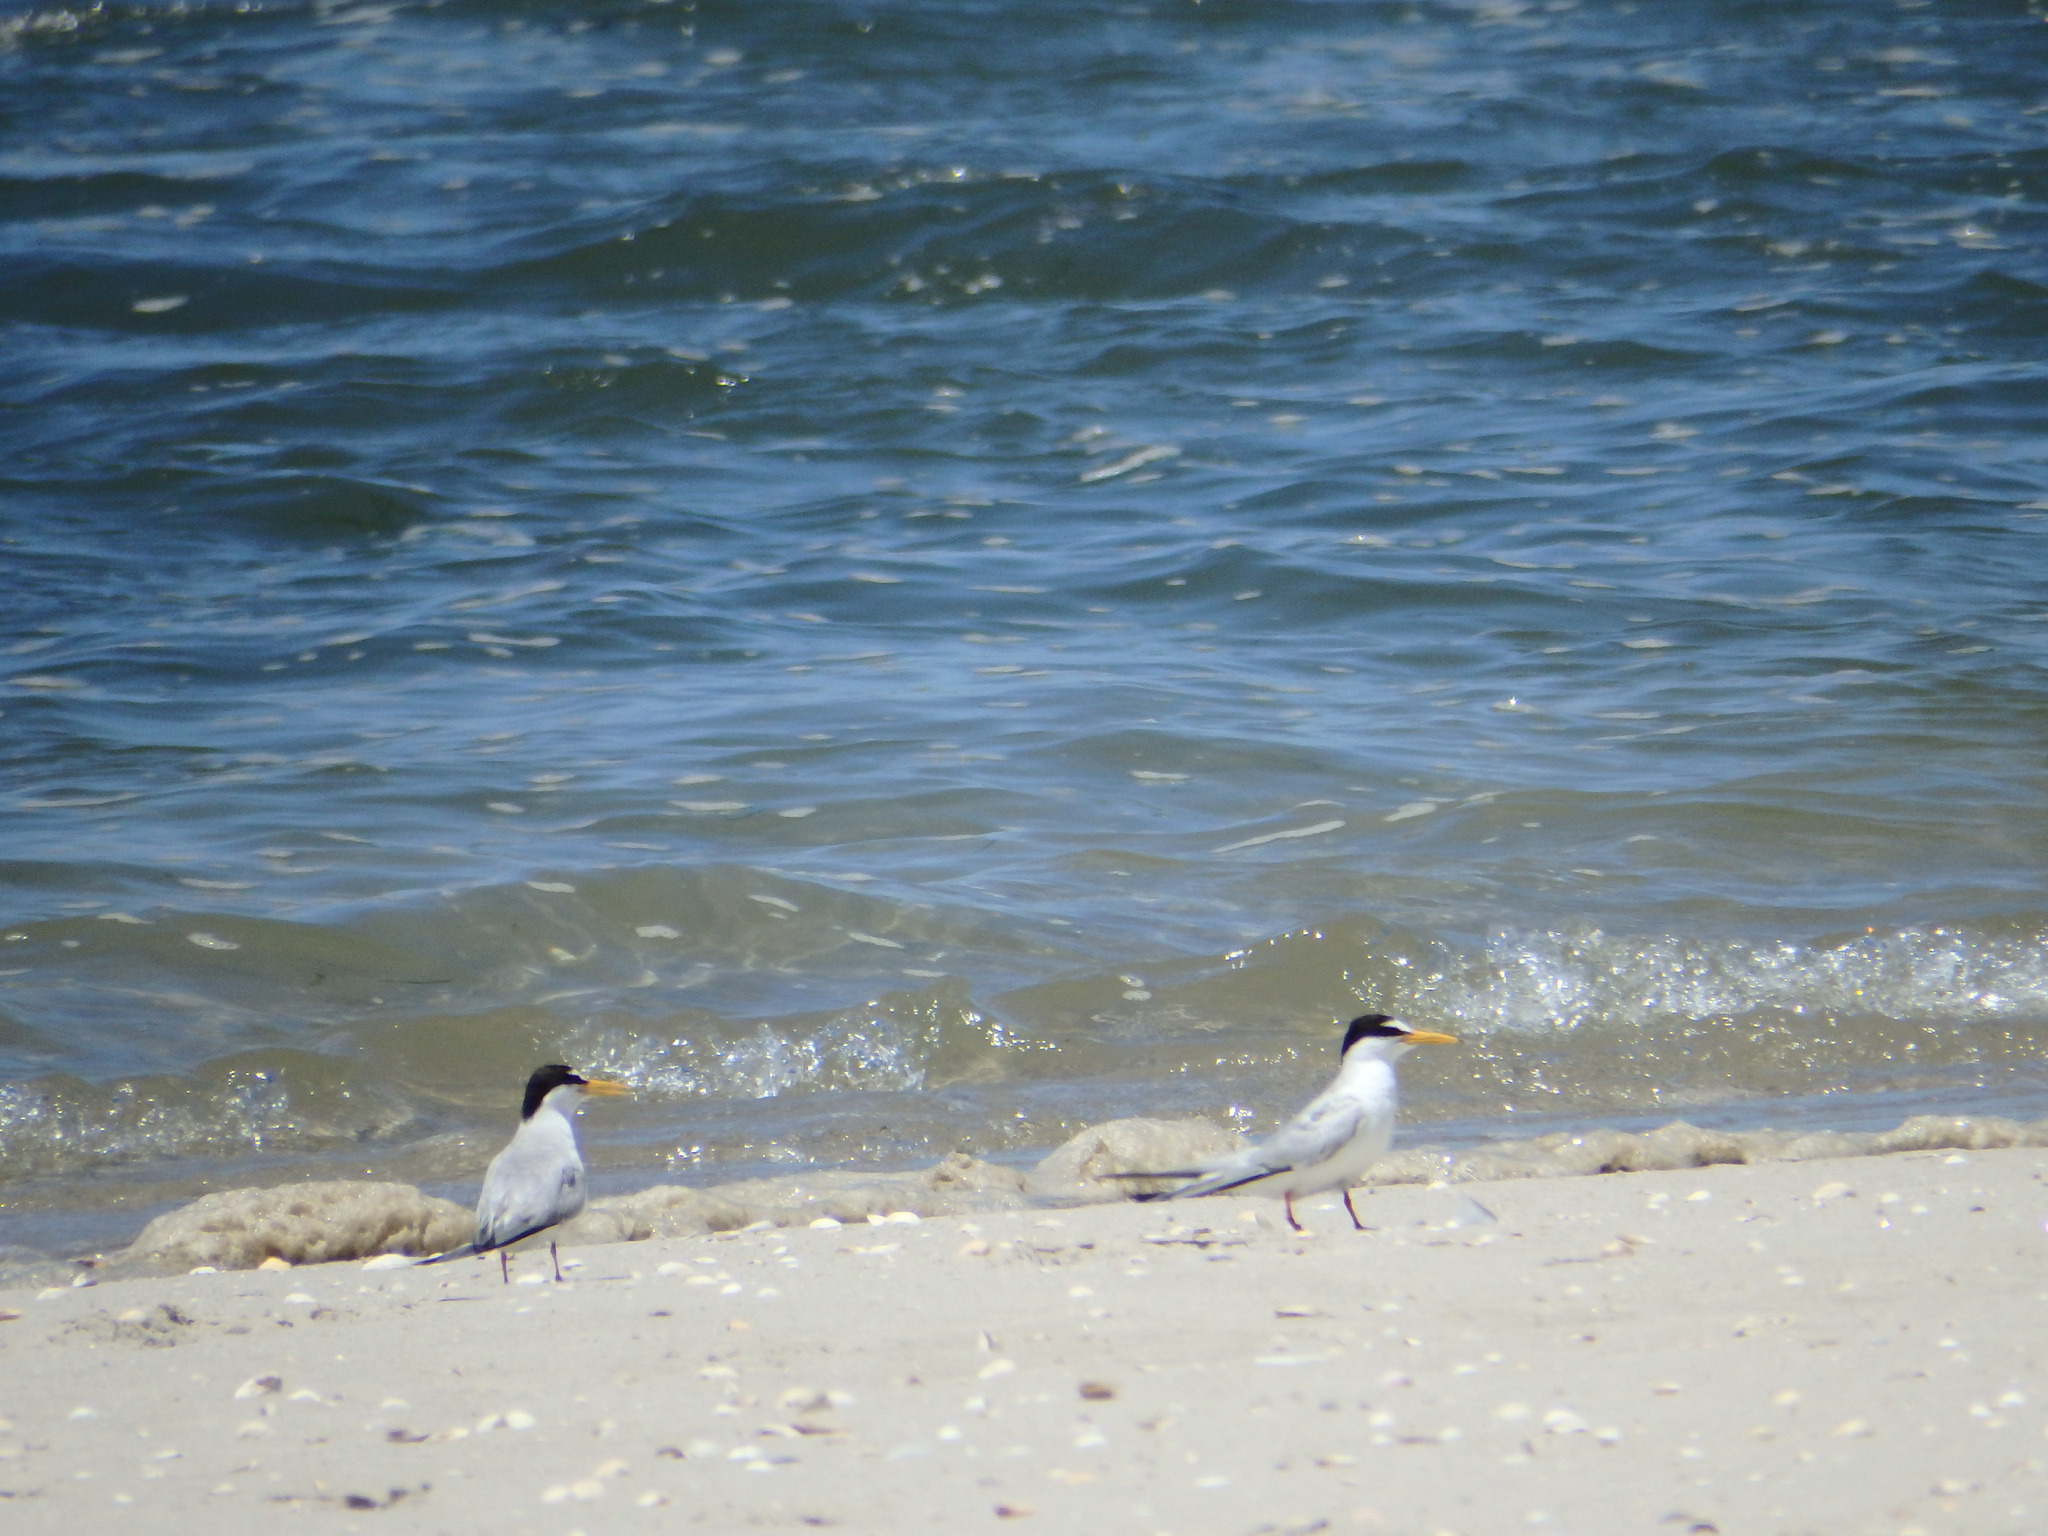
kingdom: Animalia
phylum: Chordata
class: Aves
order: Charadriiformes
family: Laridae
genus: Sternula
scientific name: Sternula albifrons
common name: Little tern
